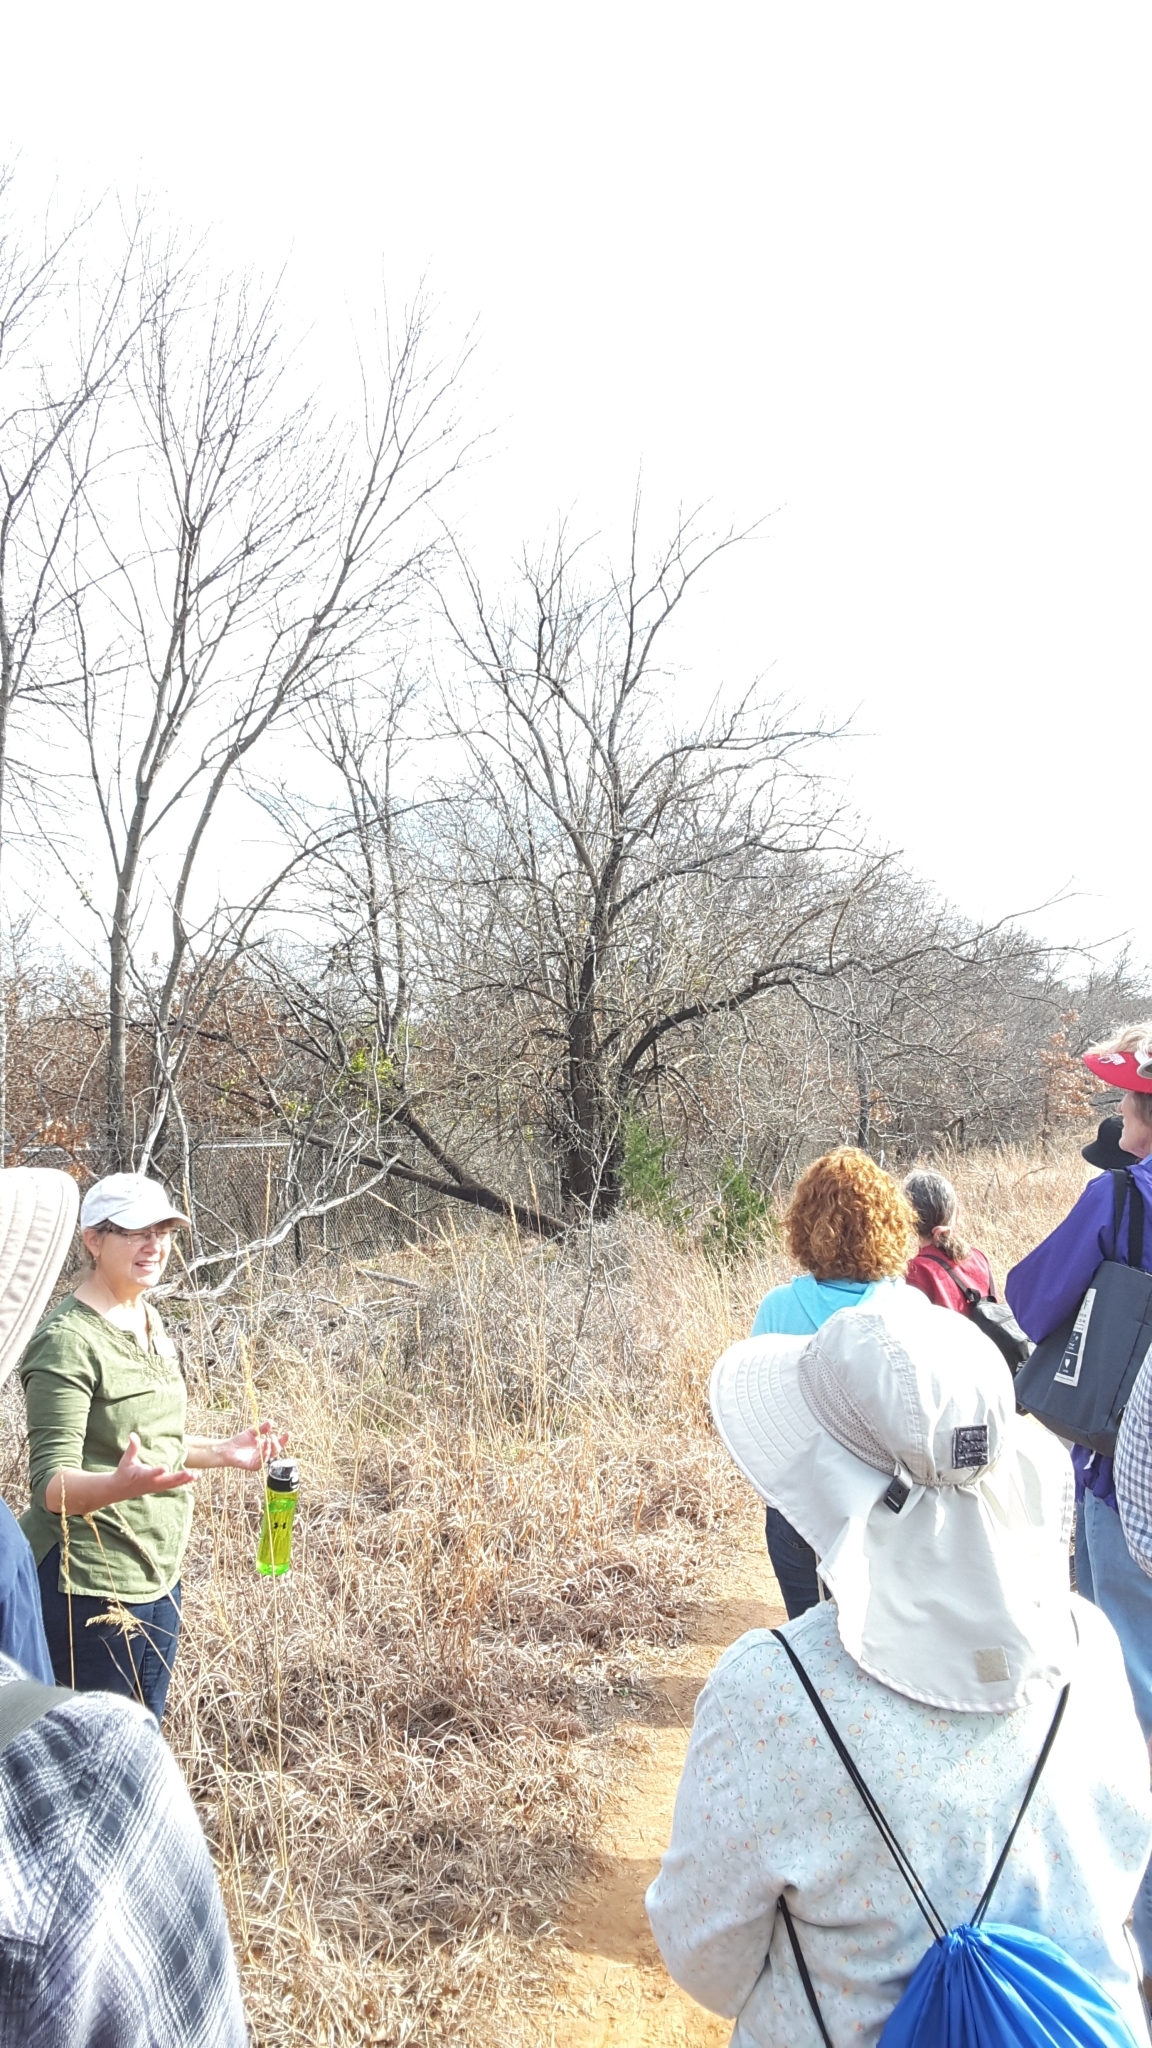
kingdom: Plantae
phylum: Tracheophyta
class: Magnoliopsida
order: Rosales
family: Moraceae
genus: Maclura
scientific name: Maclura pomifera
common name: Osage-orange
